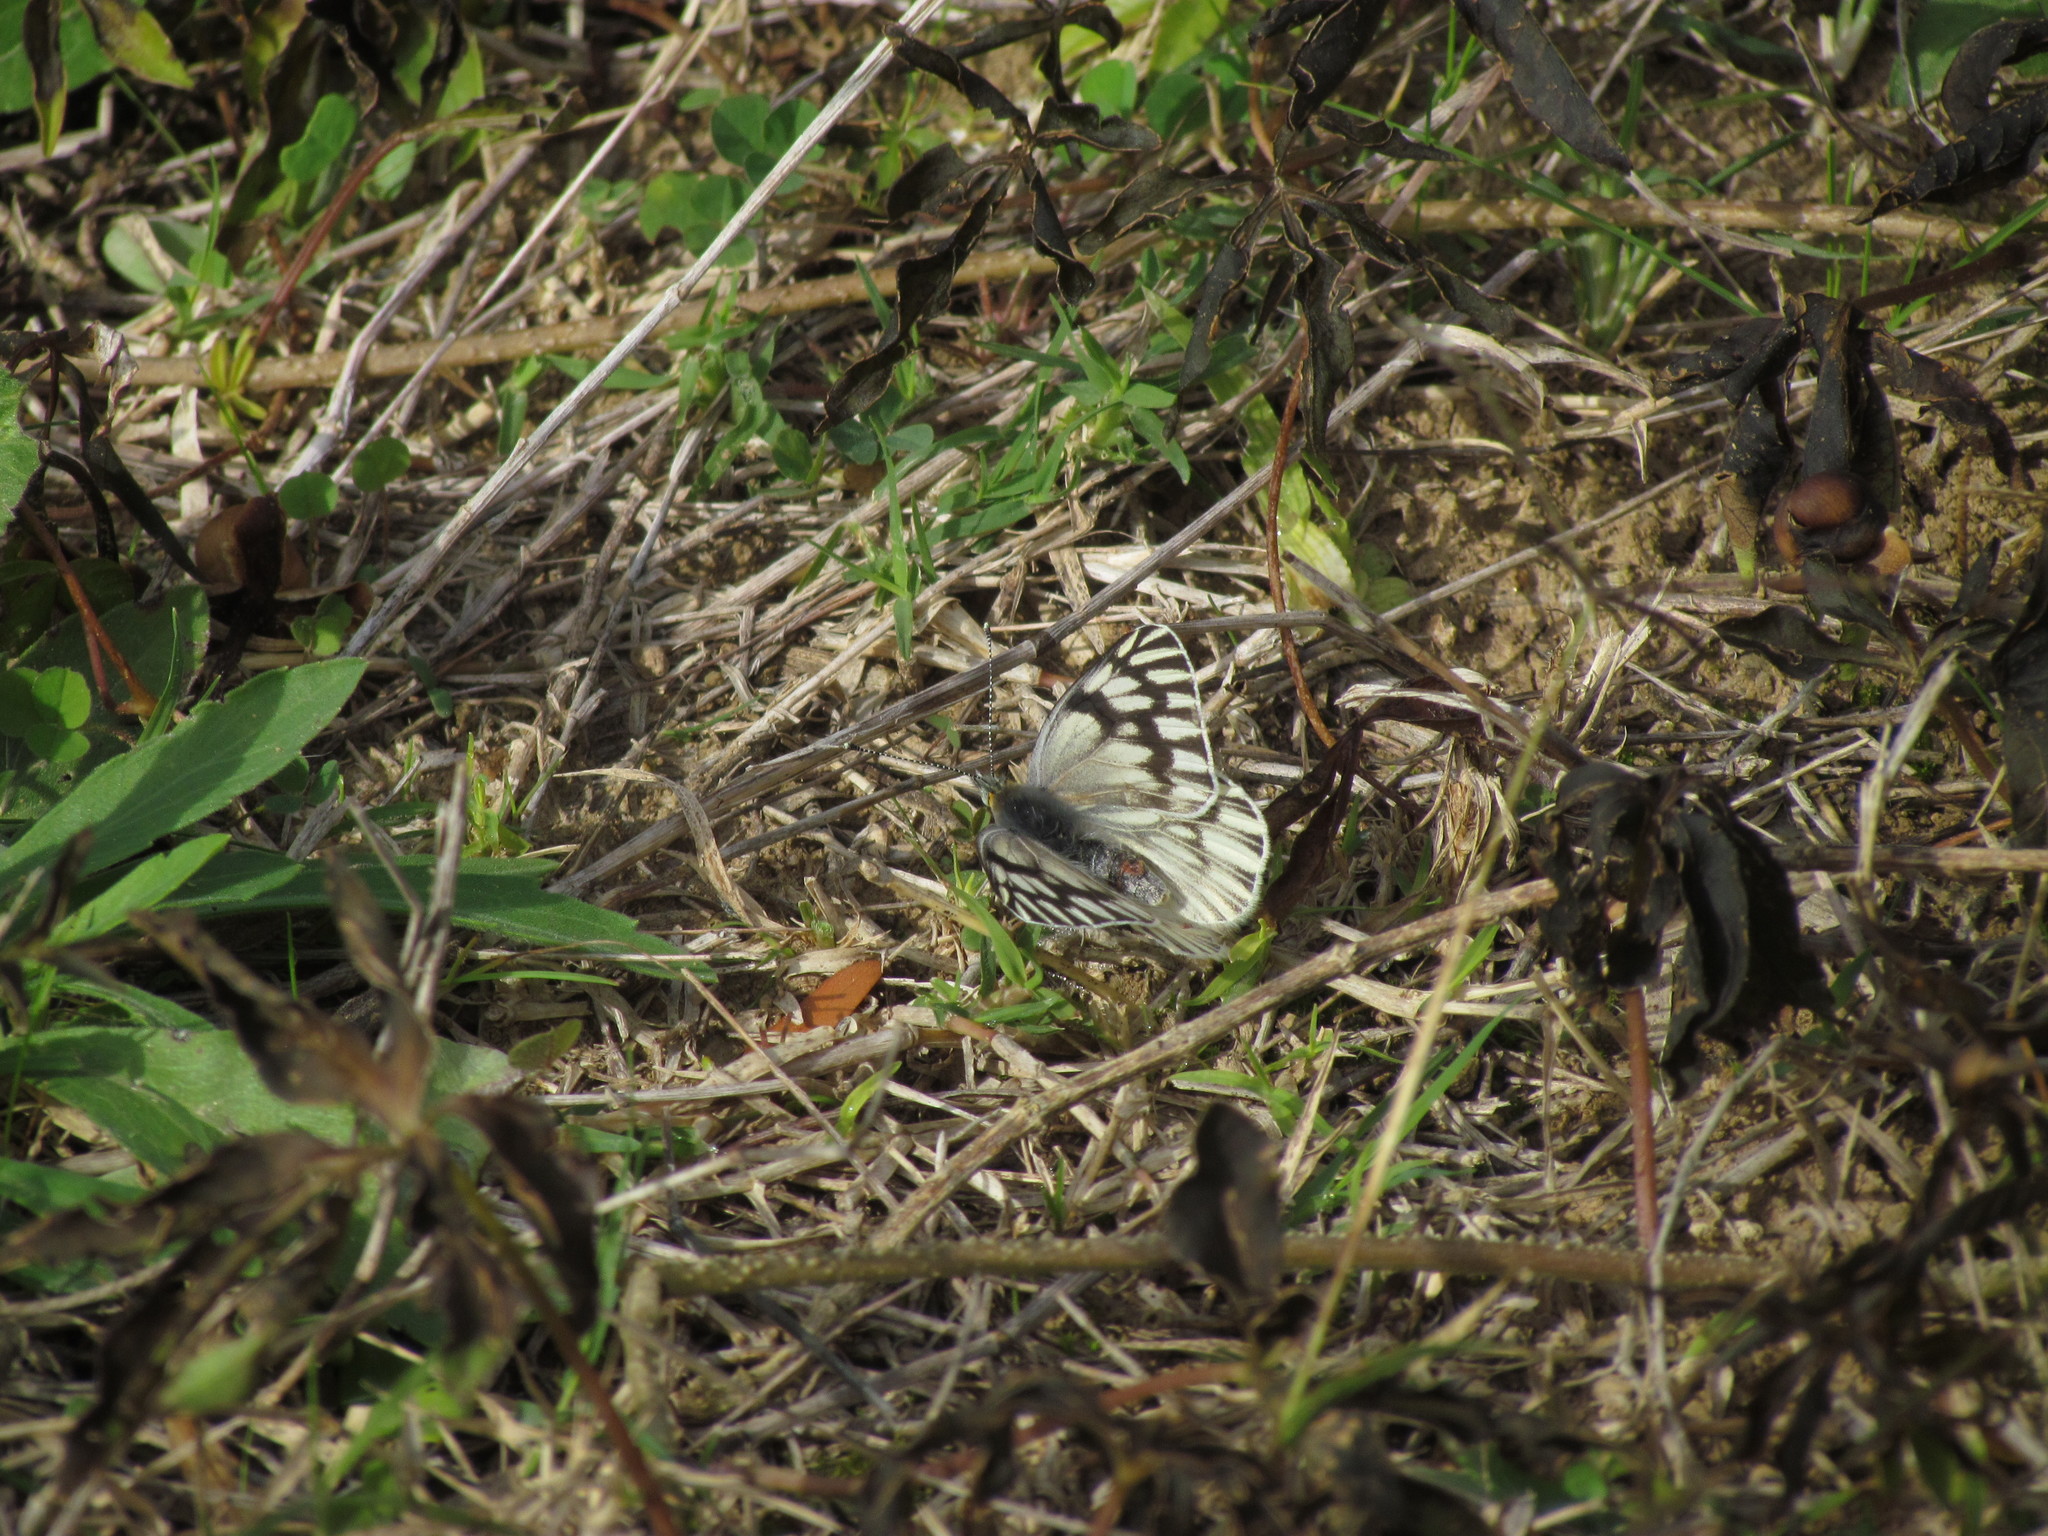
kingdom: Animalia
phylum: Arthropoda
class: Insecta
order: Lepidoptera
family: Pieridae
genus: Tatochila
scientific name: Tatochila mercedis
